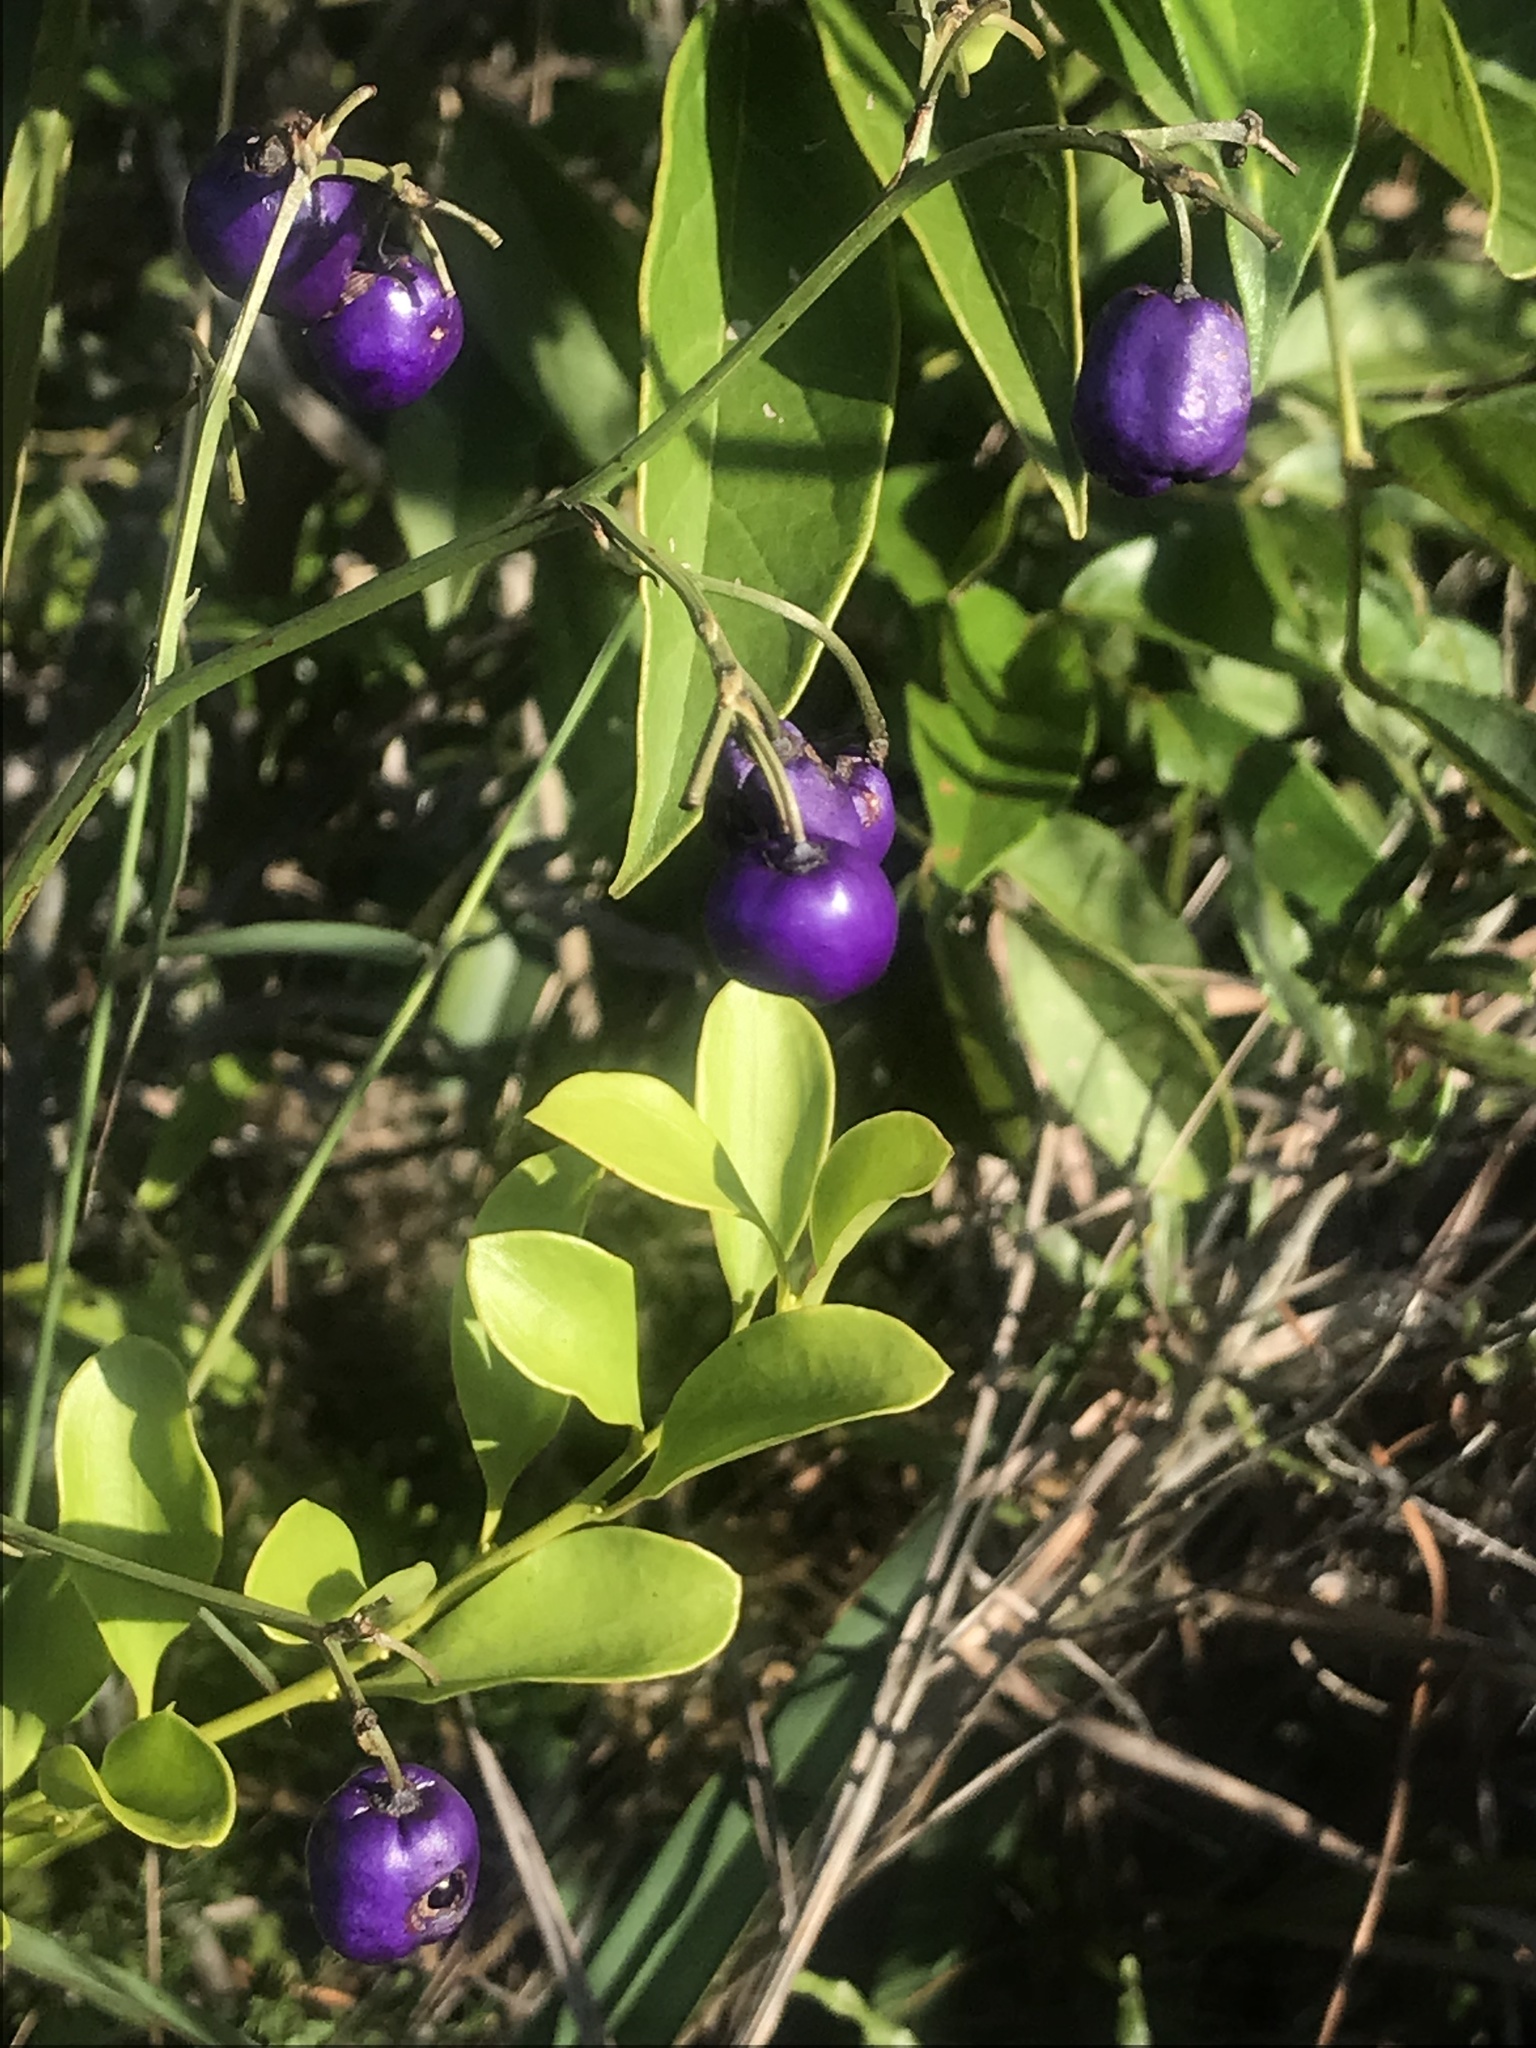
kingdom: Plantae
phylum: Tracheophyta
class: Liliopsida
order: Asparagales
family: Asphodelaceae
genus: Dianella
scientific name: Dianella ensifolia
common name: New zealand lilyplant
